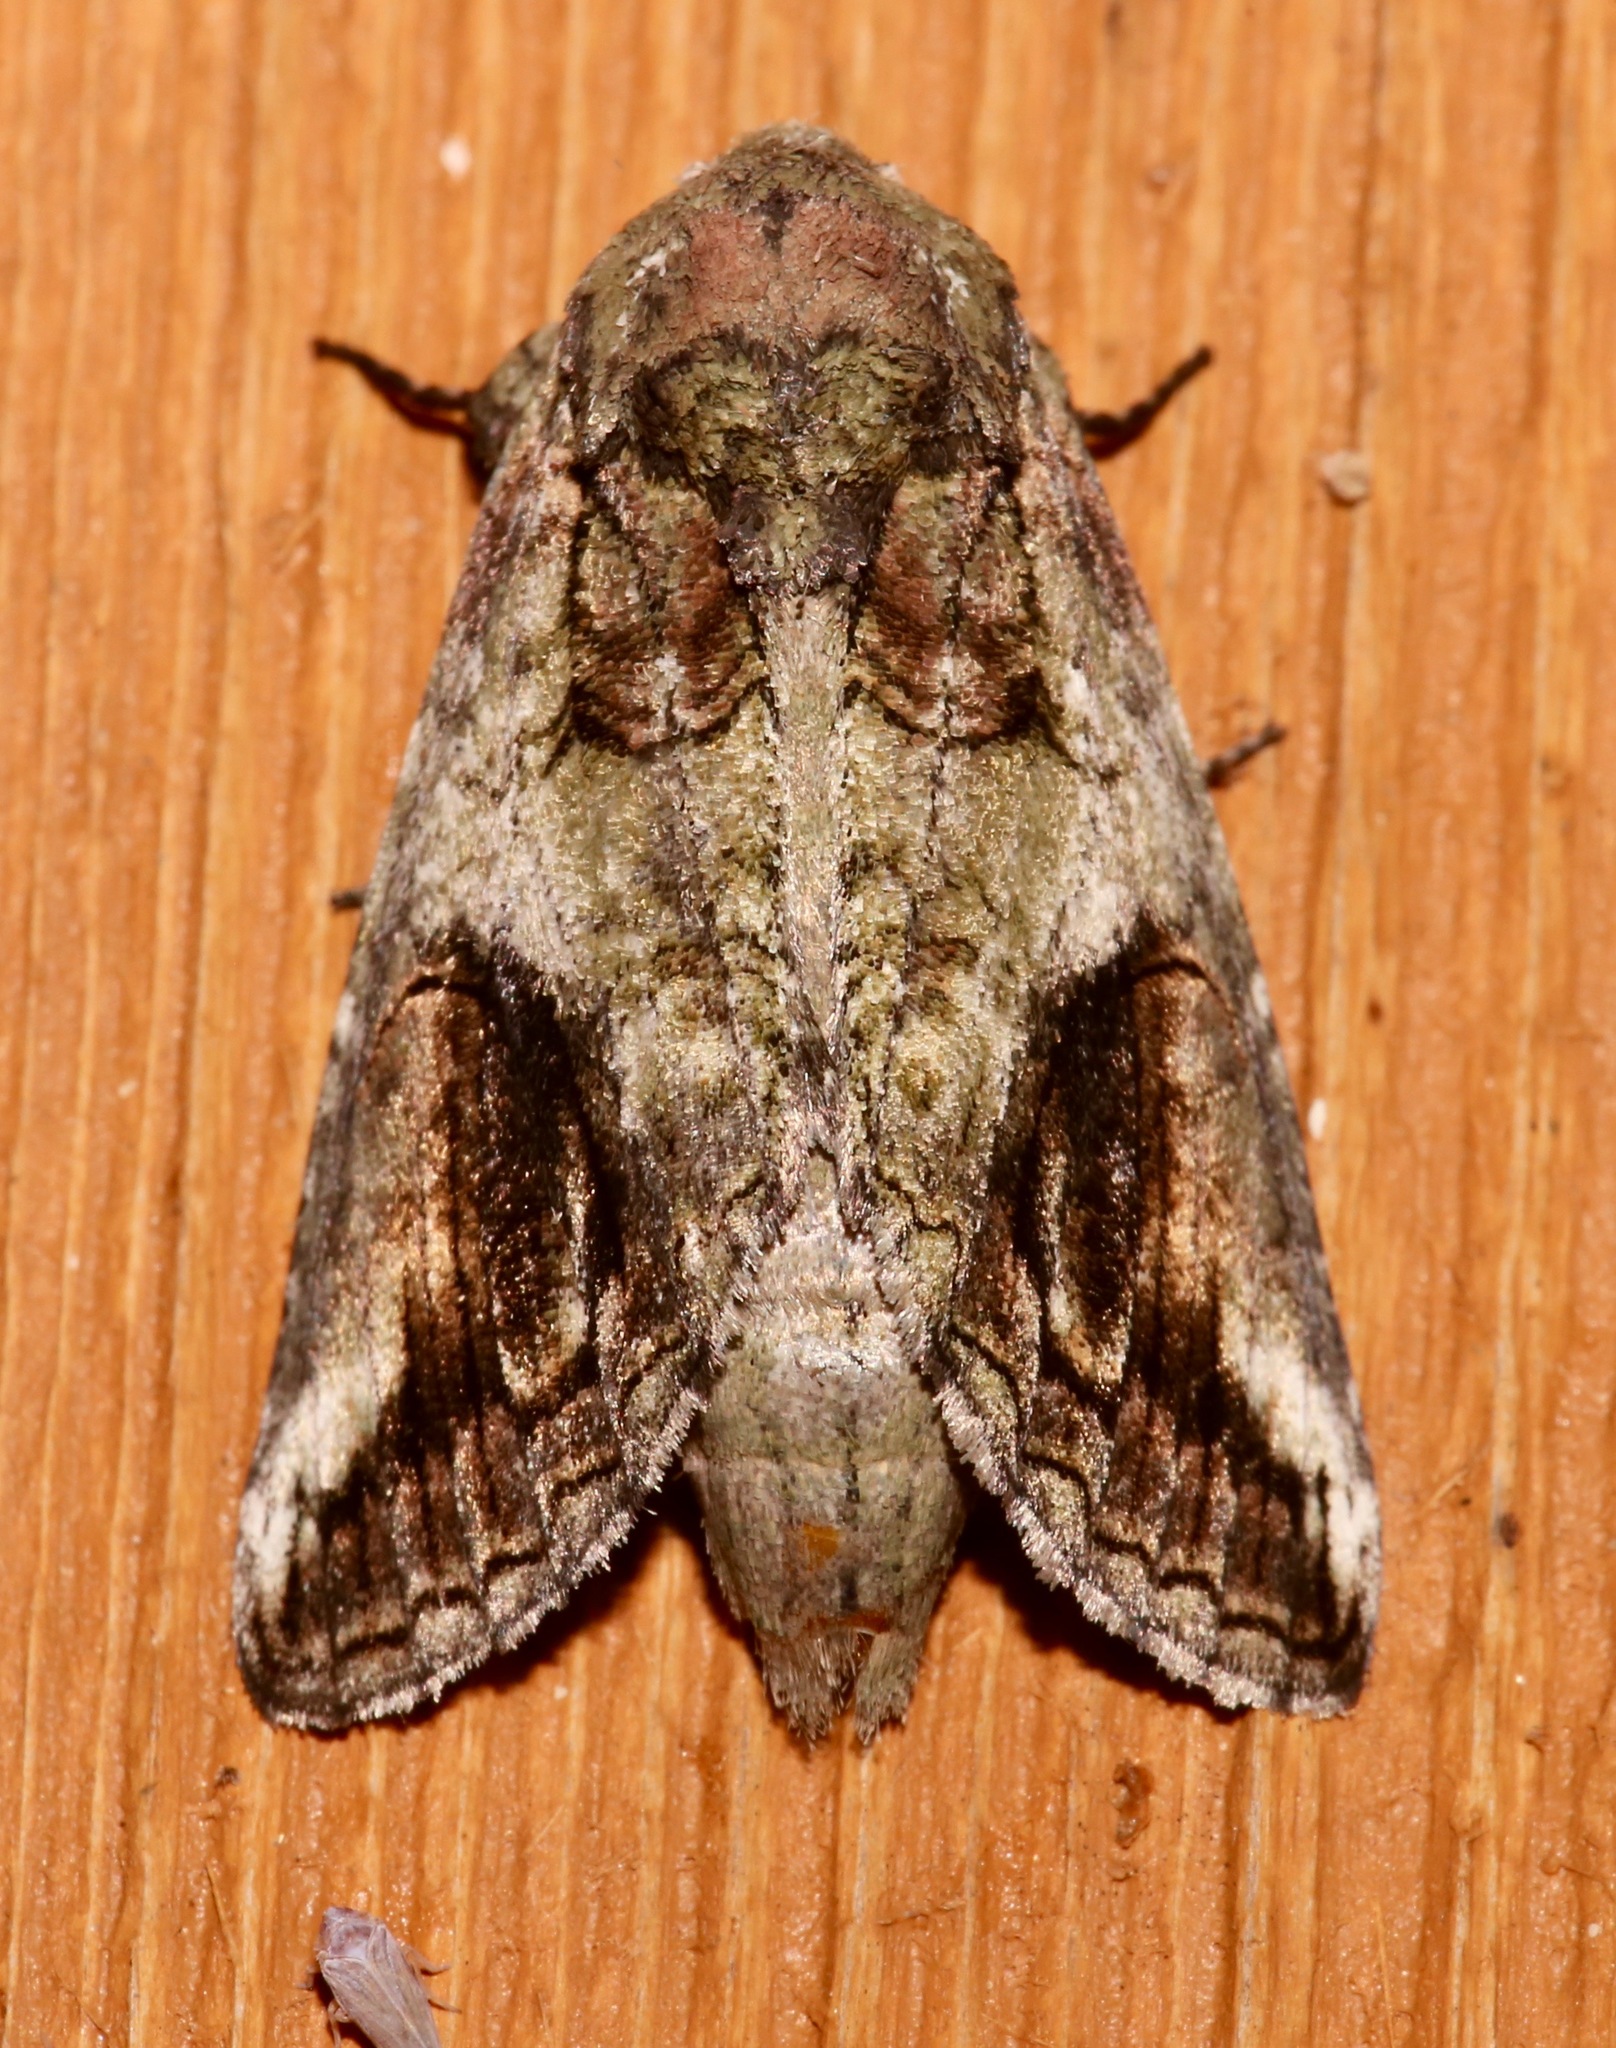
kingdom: Animalia
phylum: Arthropoda
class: Insecta
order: Lepidoptera
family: Notodontidae
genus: Heterocampa
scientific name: Heterocampa obliqua
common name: Oblique heterocampa
